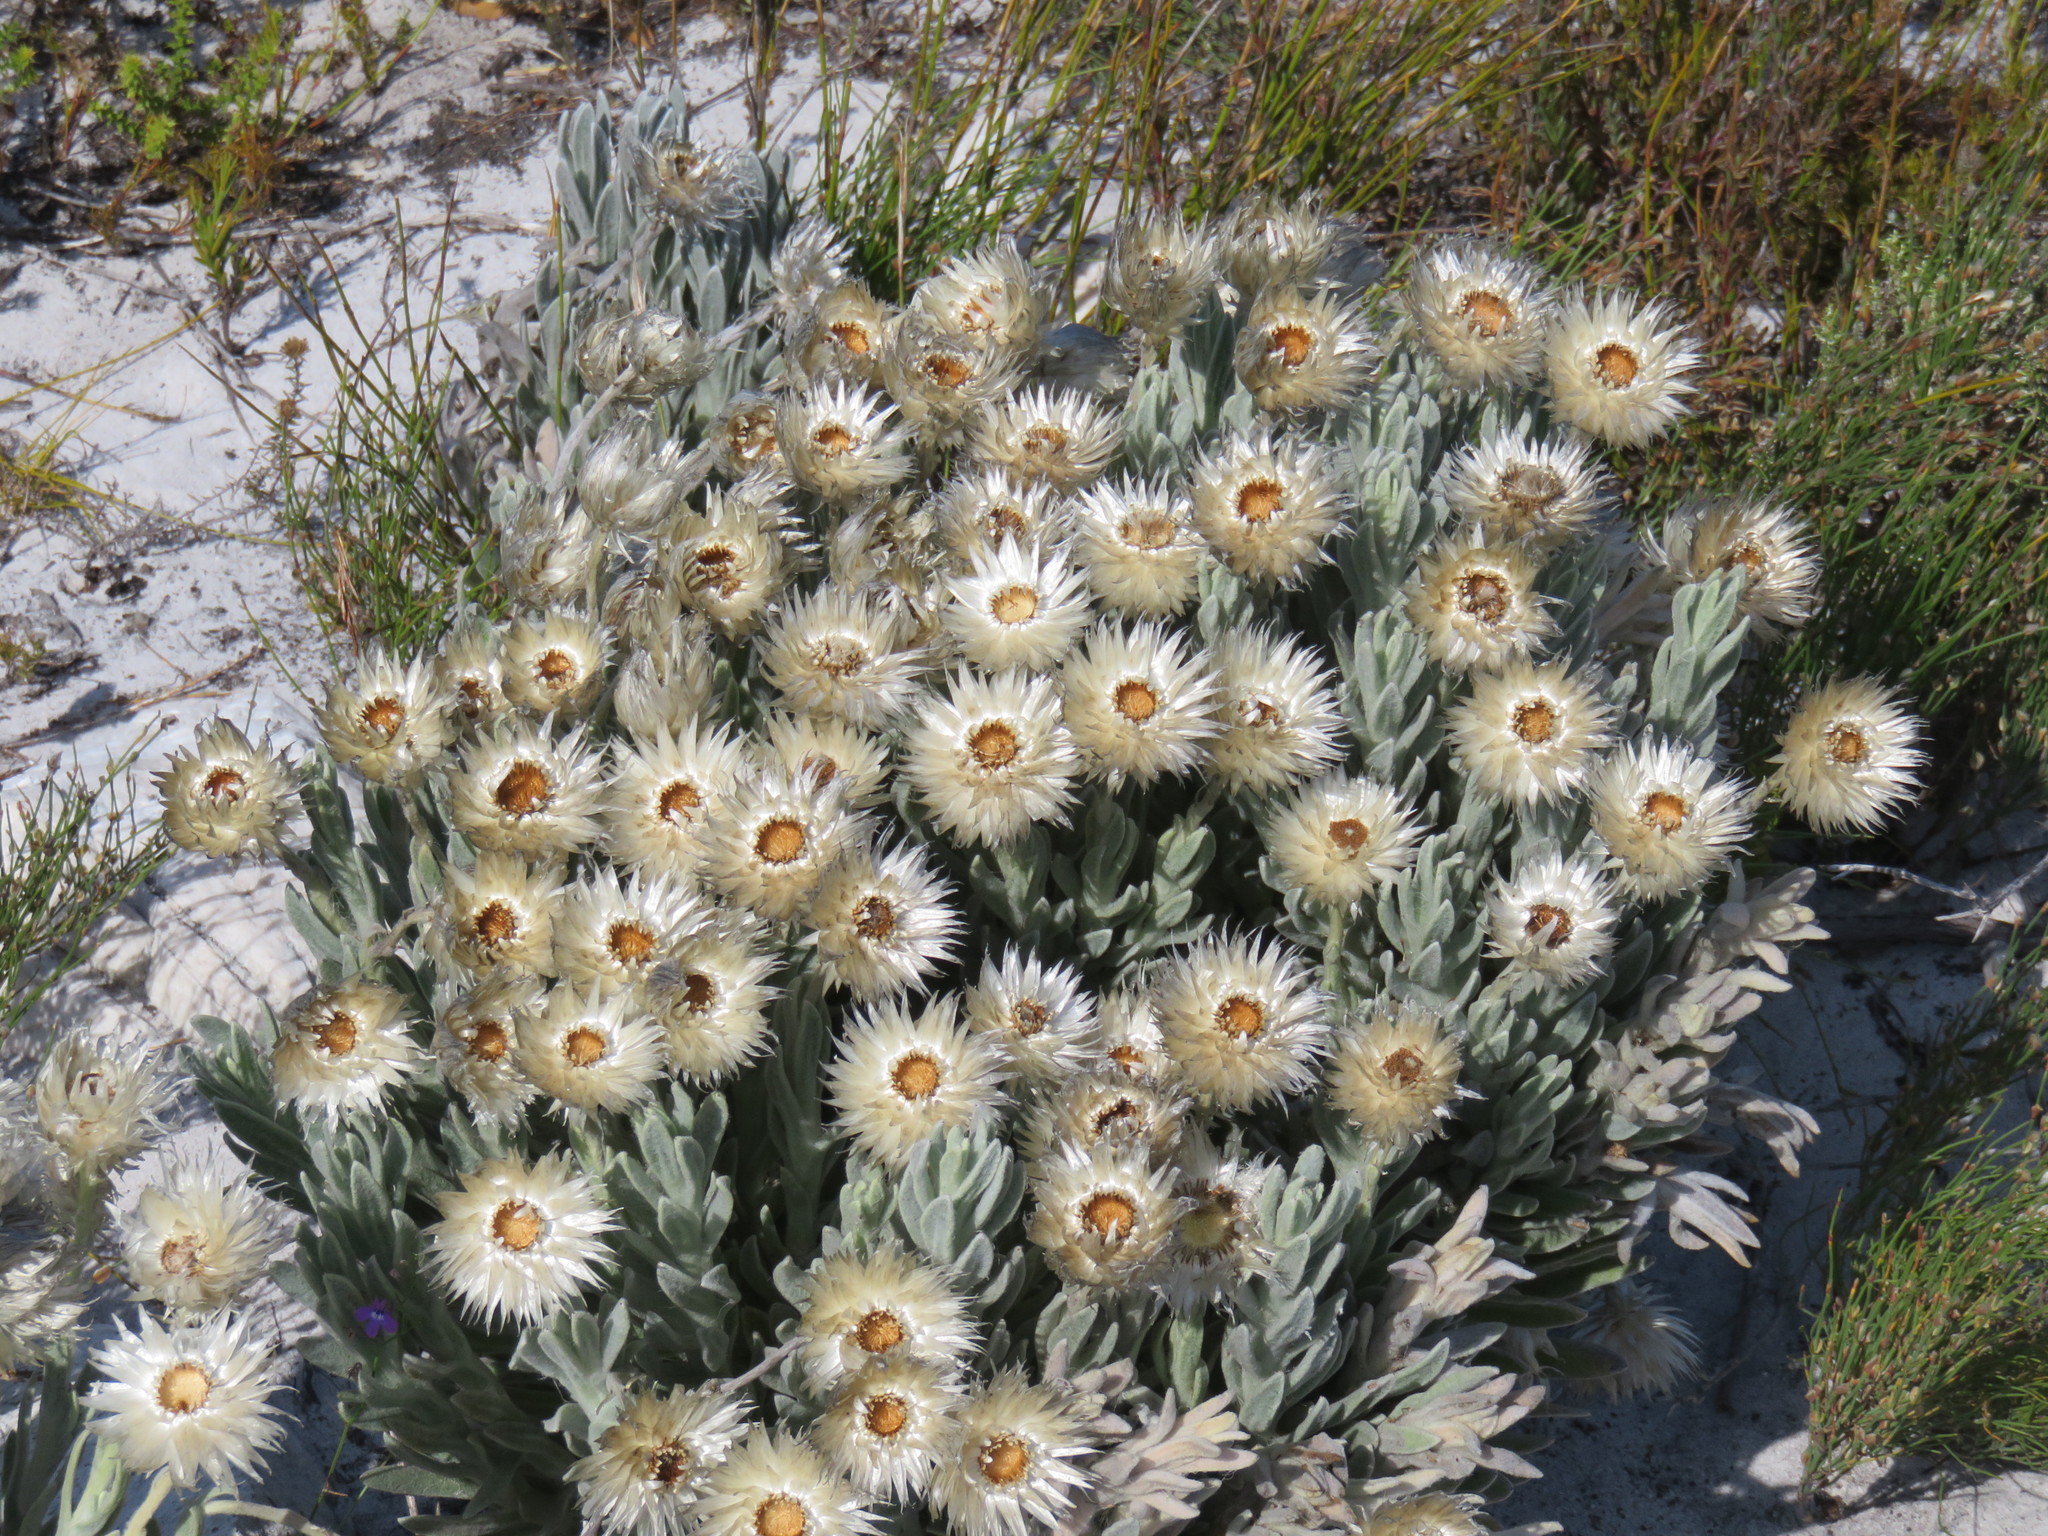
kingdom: Plantae
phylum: Tracheophyta
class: Magnoliopsida
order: Asterales
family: Asteraceae
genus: Syncarpha
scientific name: Syncarpha vestita
